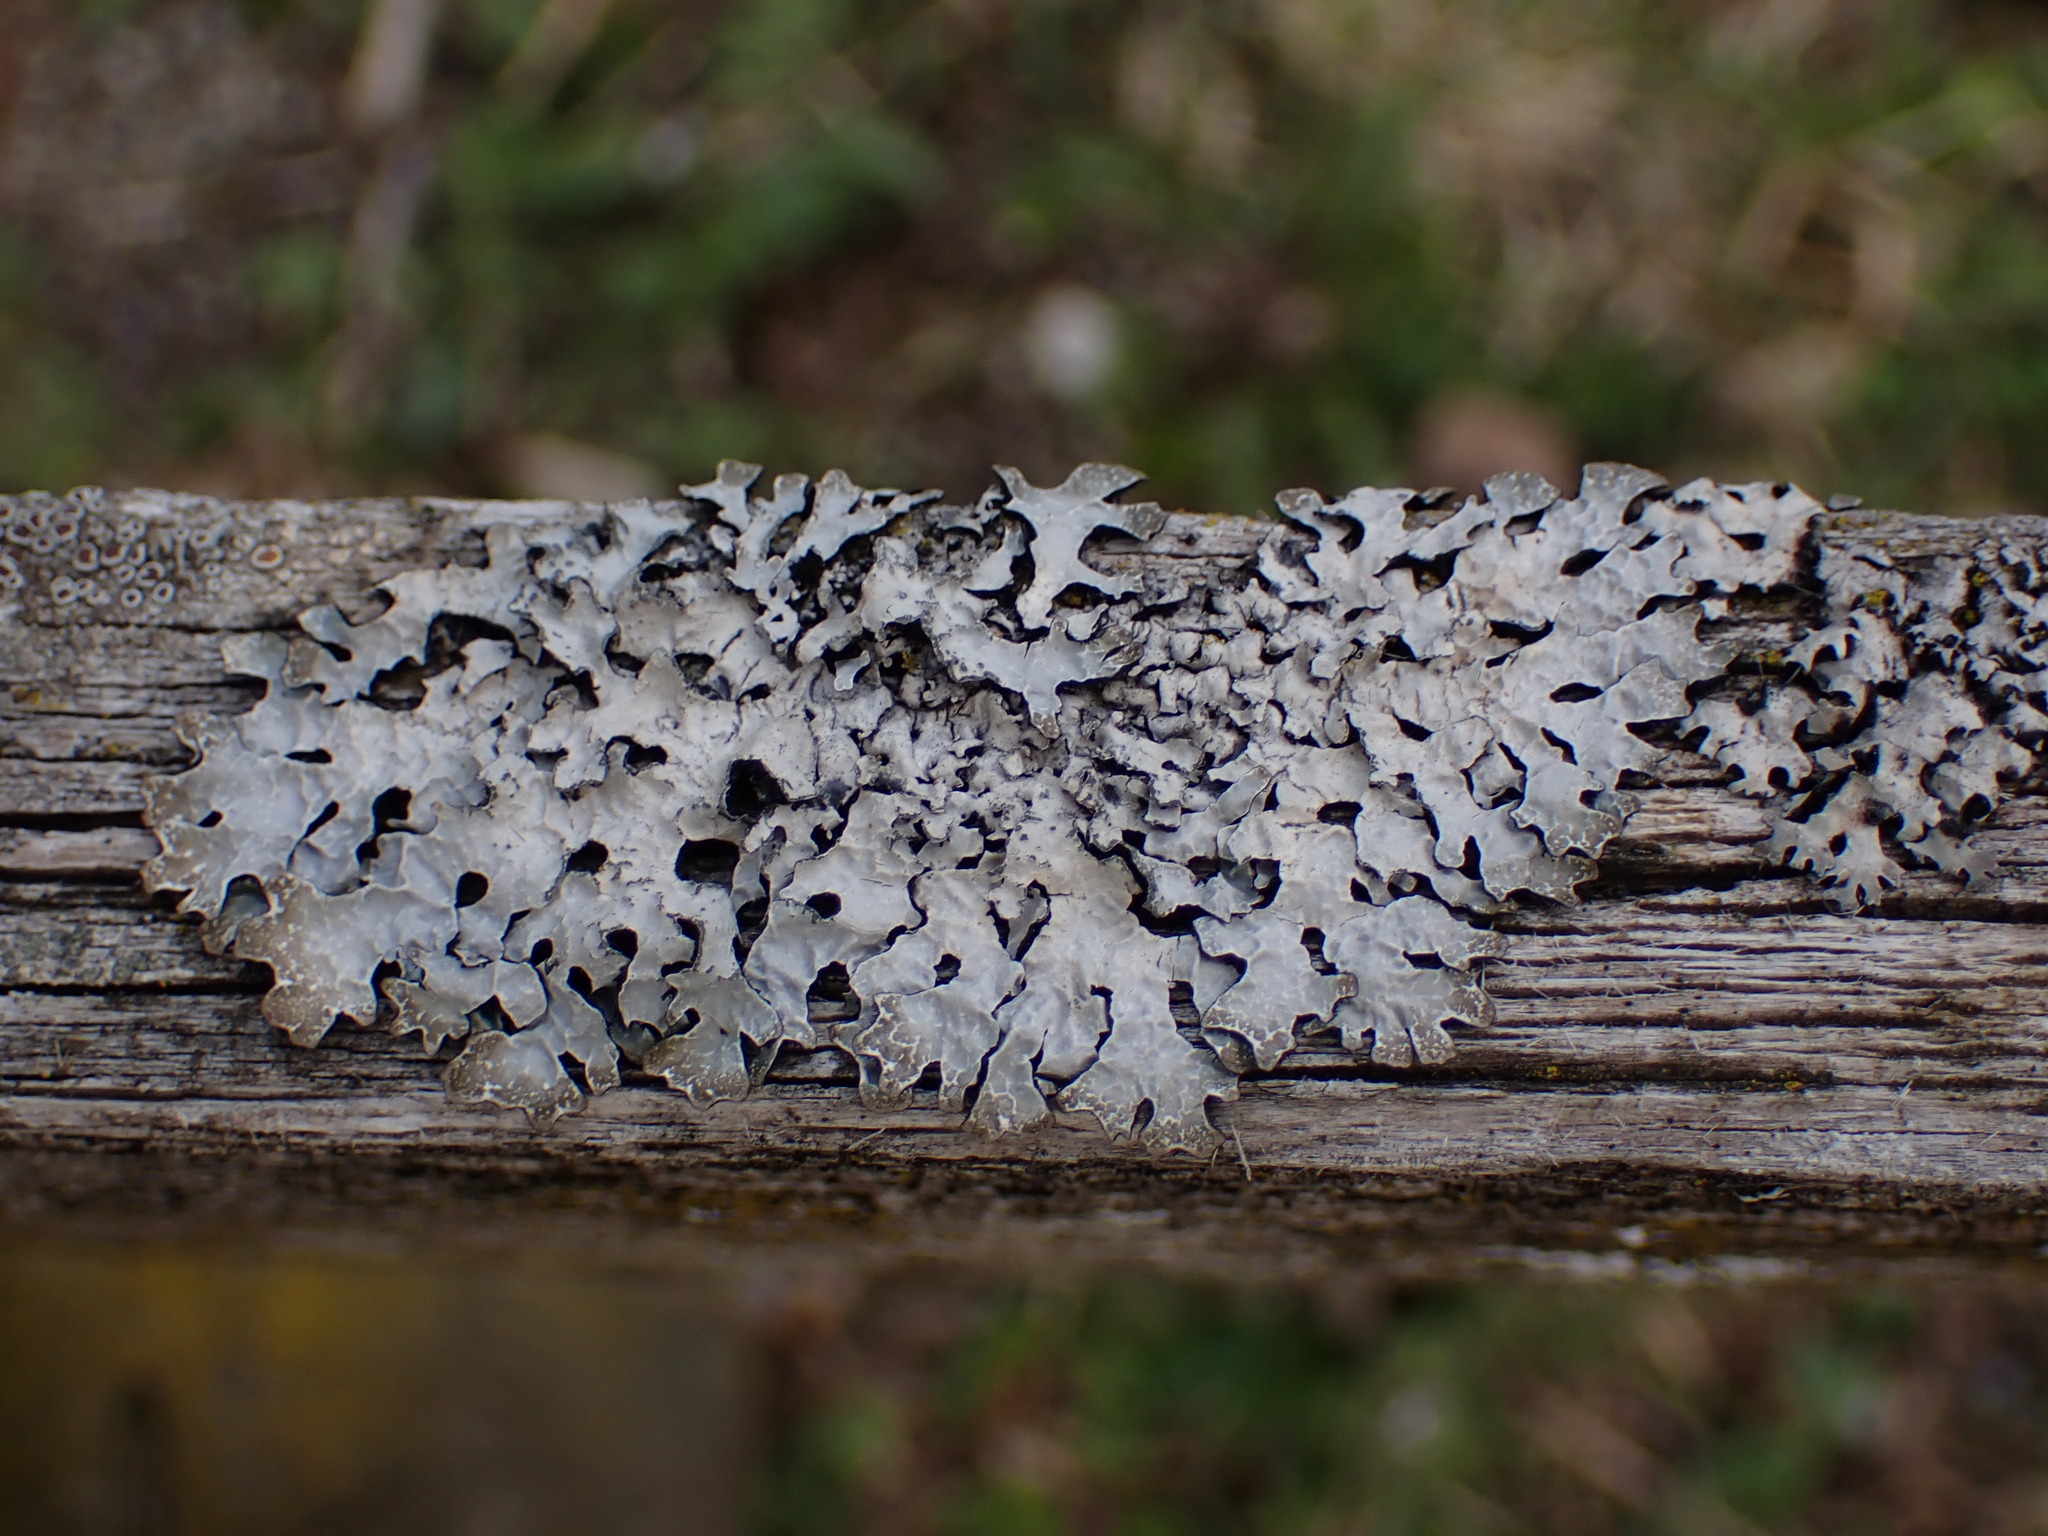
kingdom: Fungi
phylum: Ascomycota
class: Lecanoromycetes
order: Lecanorales
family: Parmeliaceae
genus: Parmelia
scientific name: Parmelia sulcata
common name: Netted shield lichen
